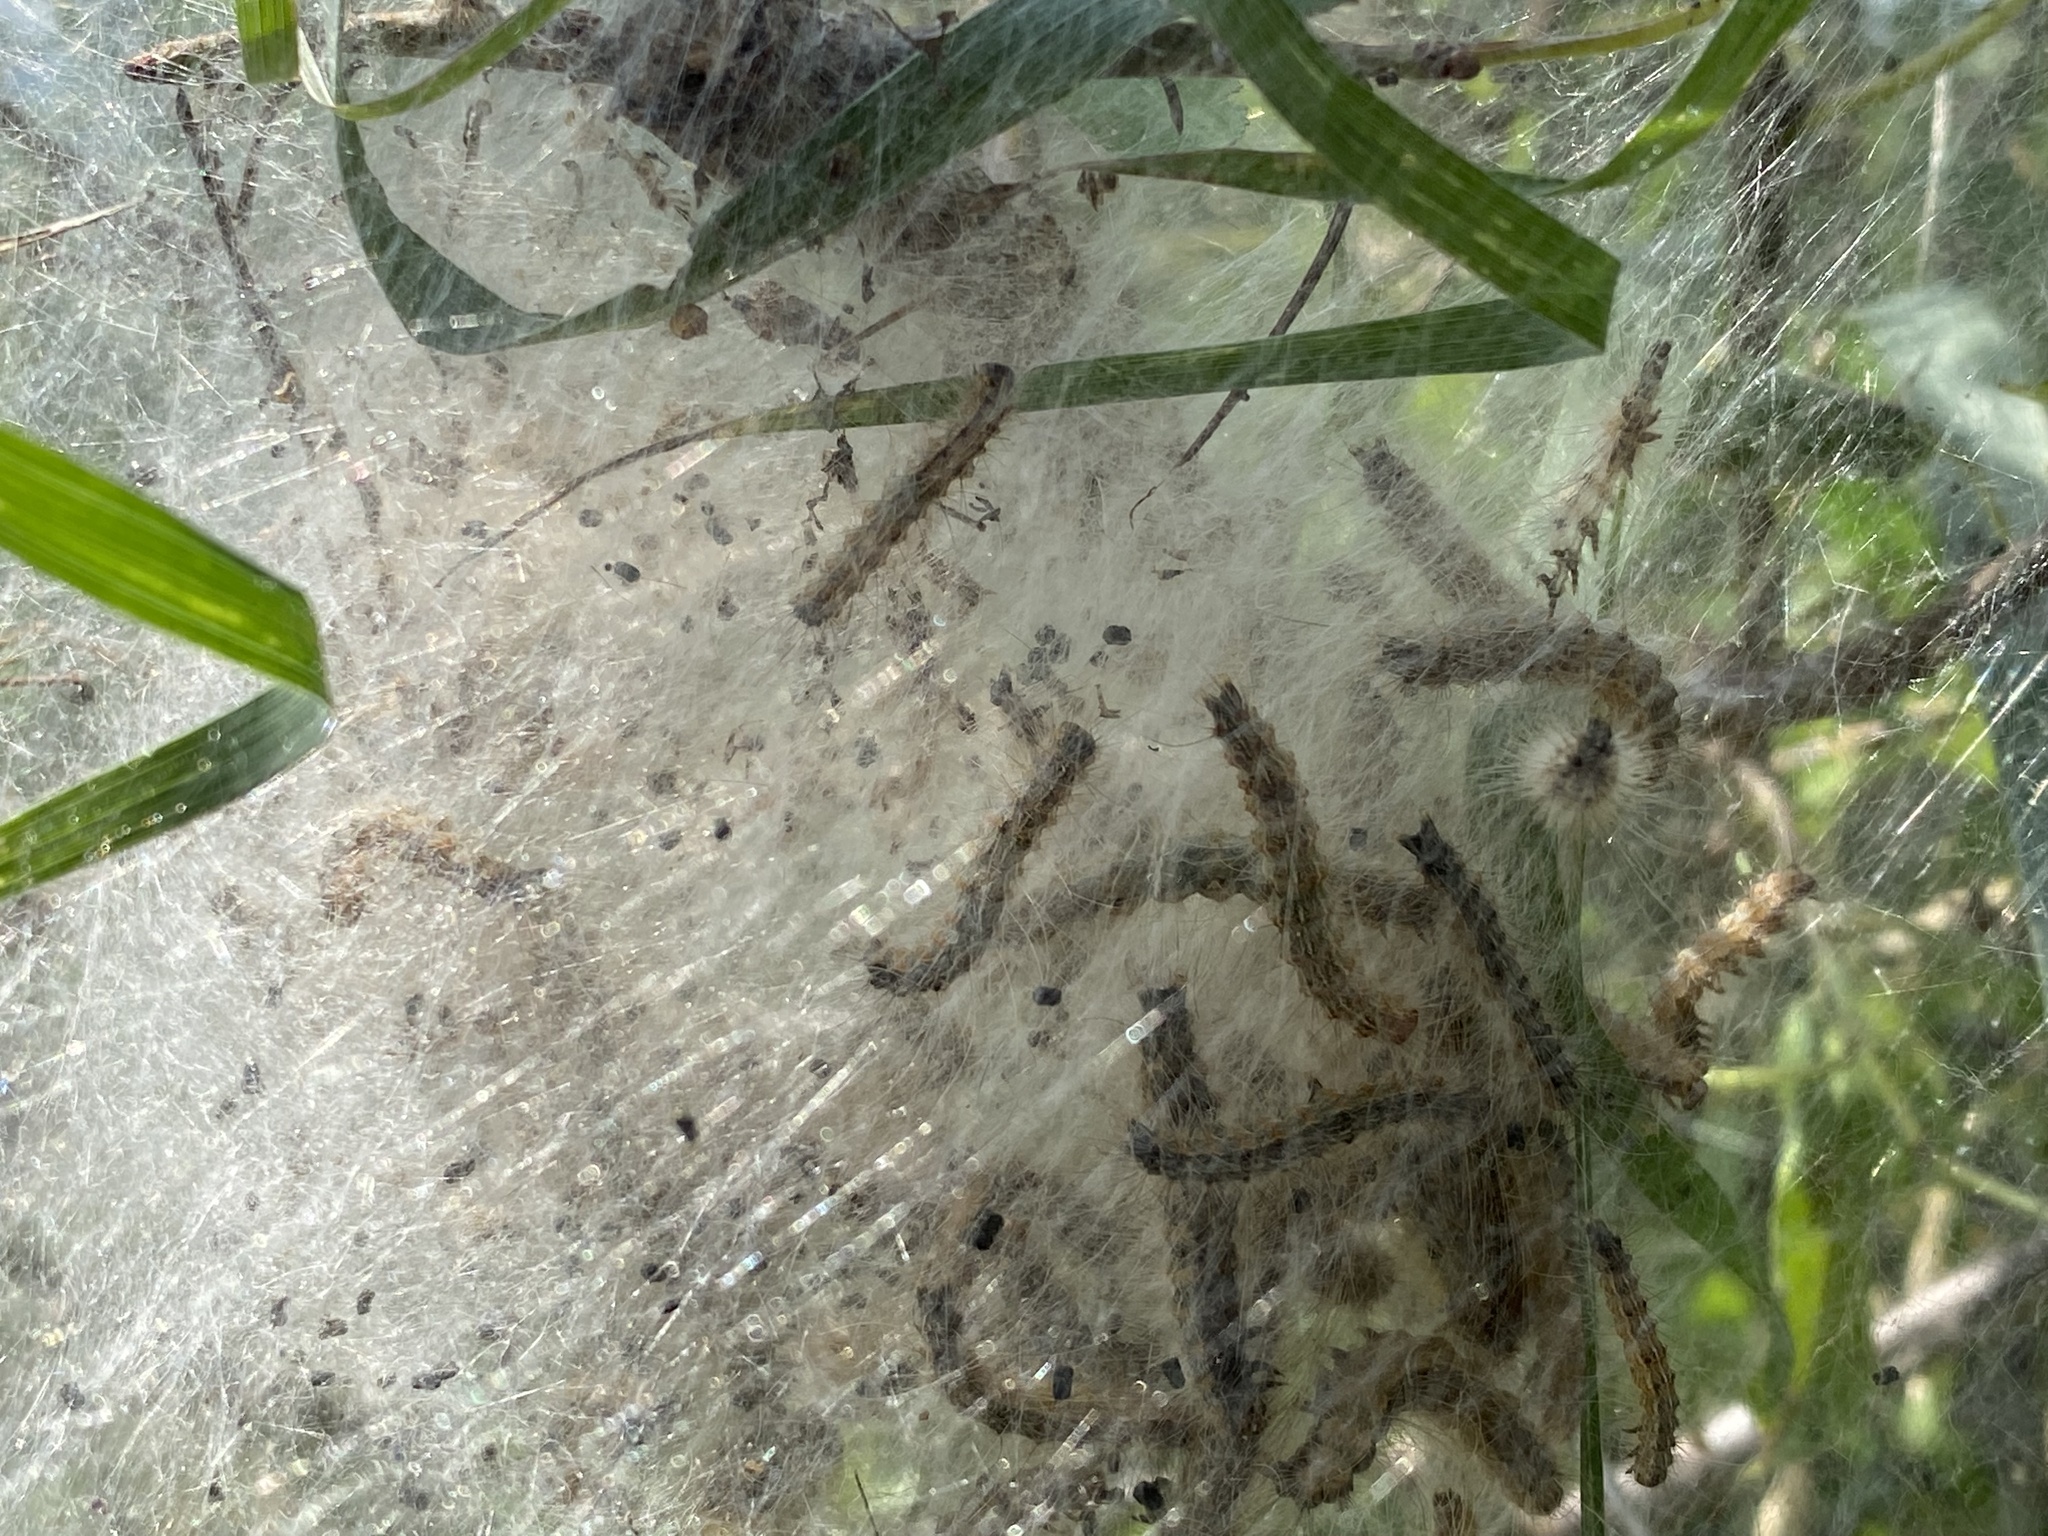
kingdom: Animalia
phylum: Arthropoda
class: Insecta
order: Lepidoptera
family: Erebidae
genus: Hyphantria
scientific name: Hyphantria cunea
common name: American white moth
